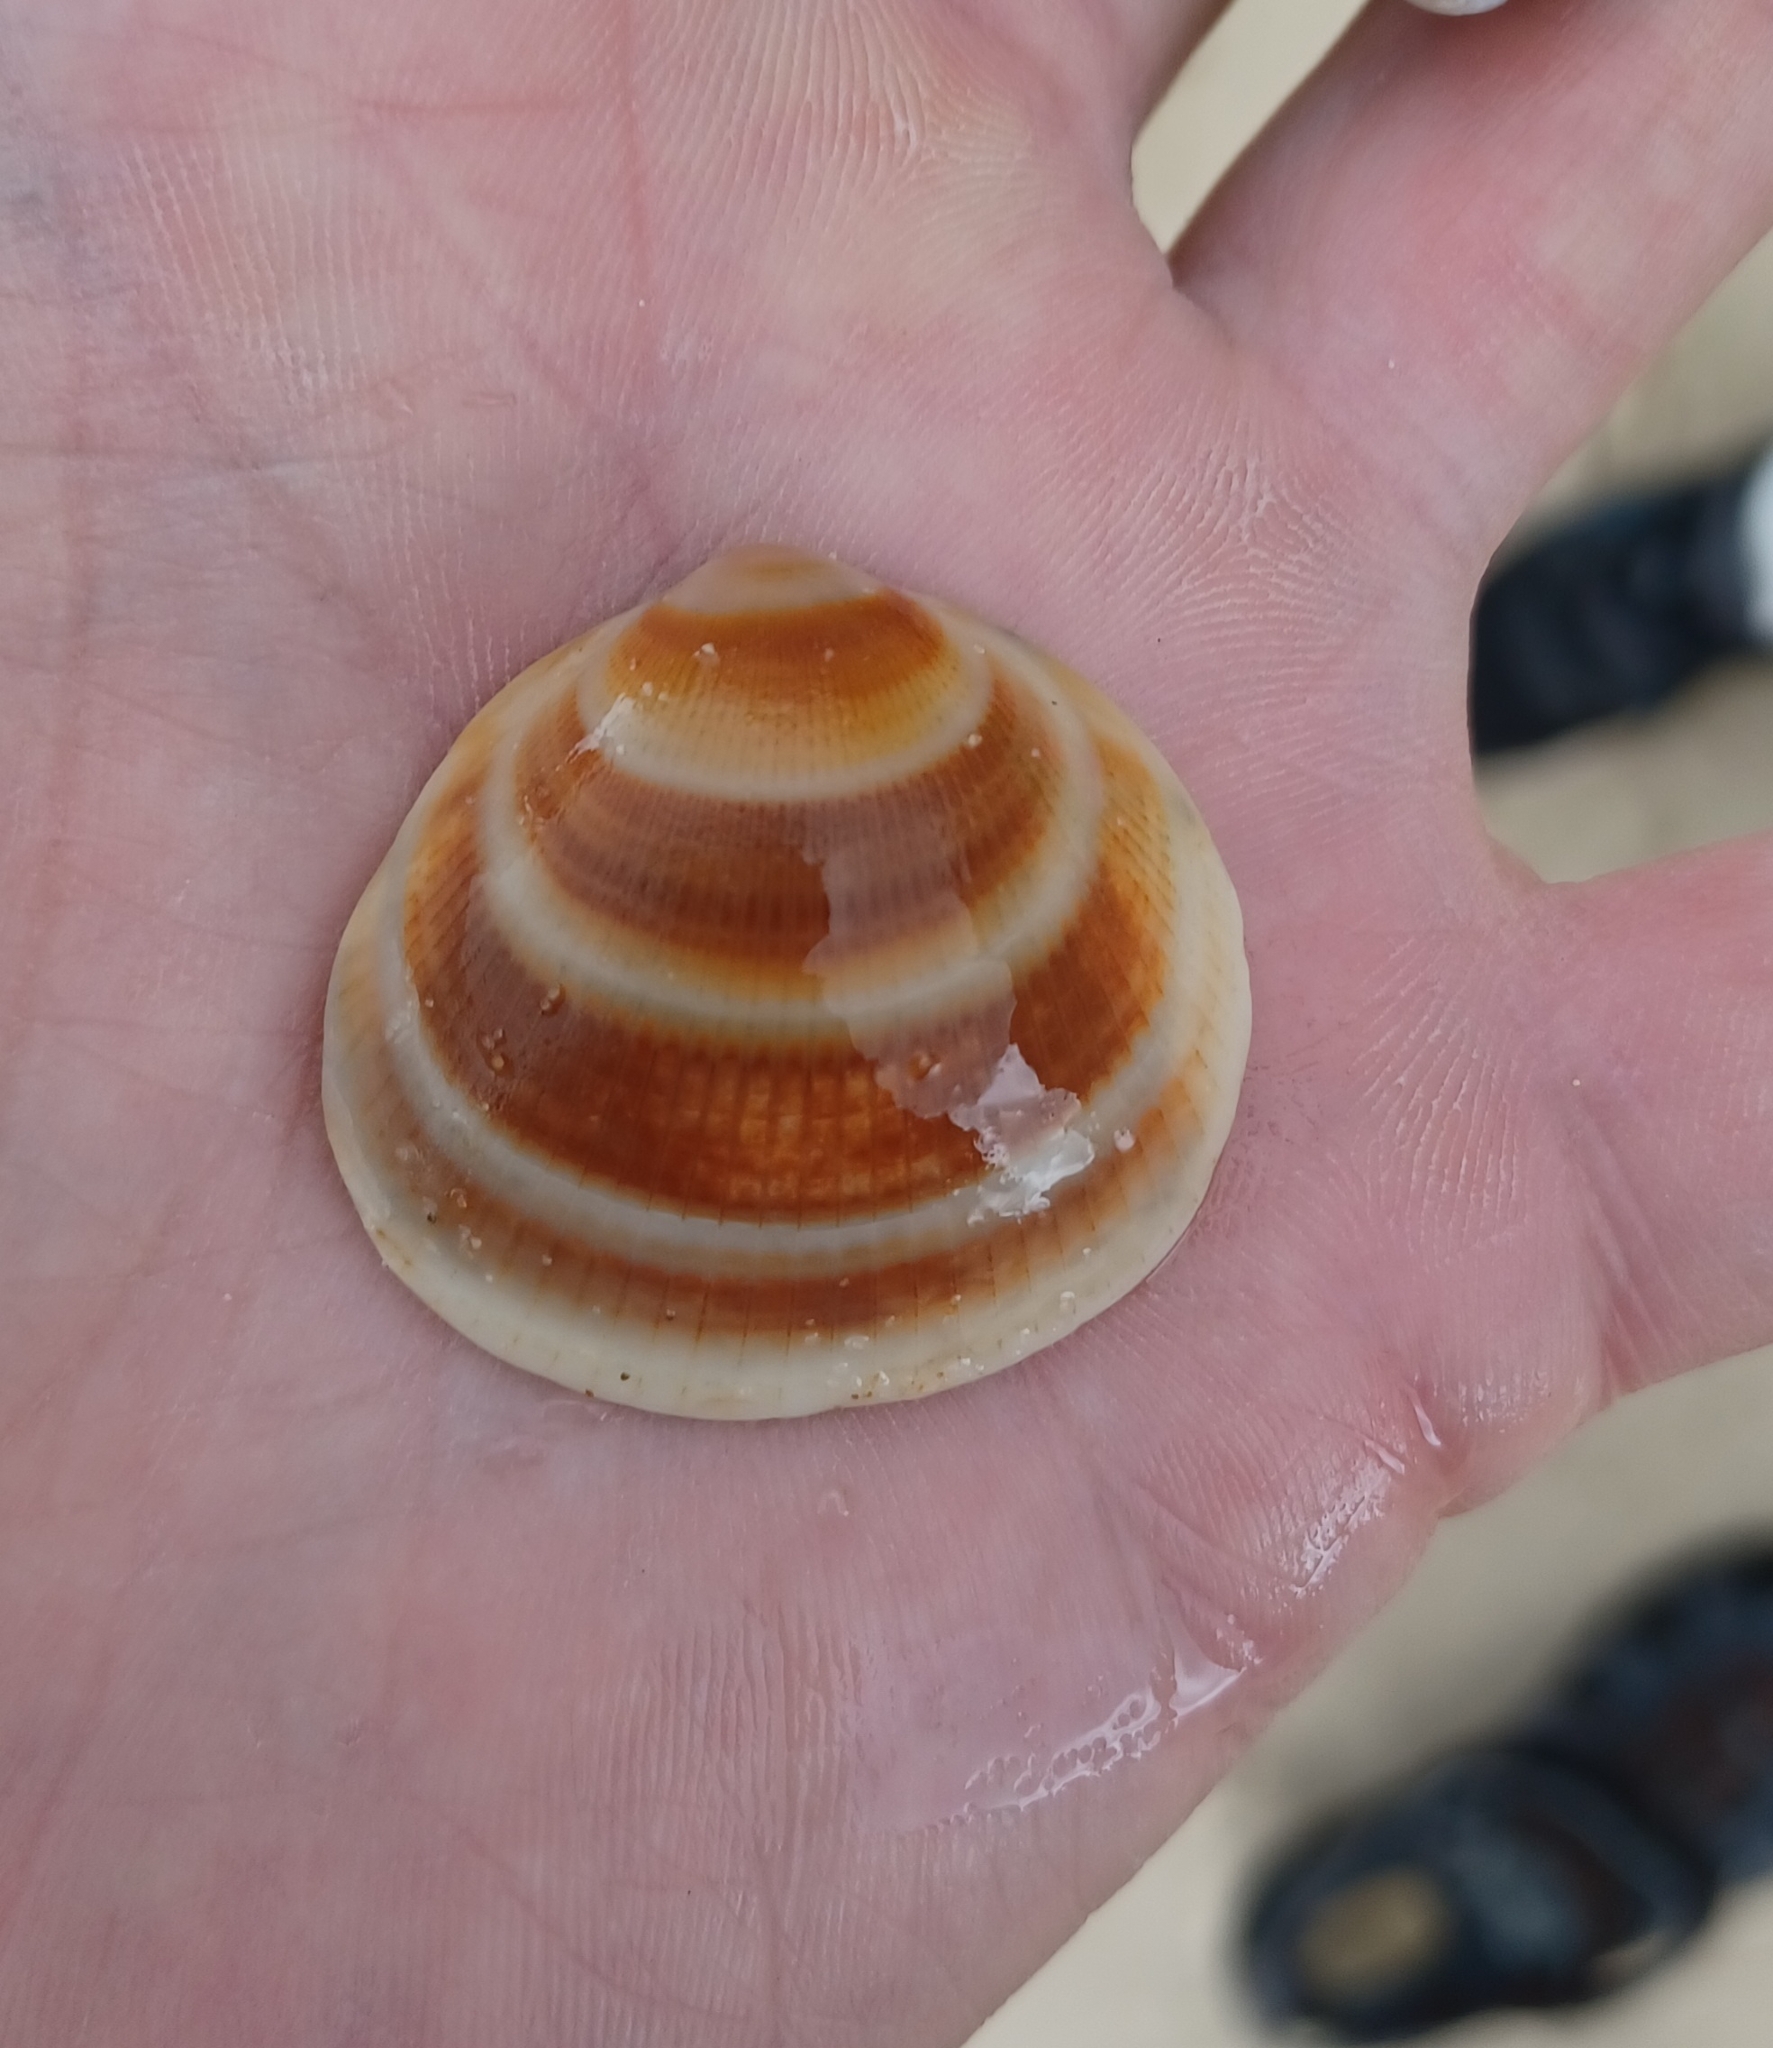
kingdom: Animalia
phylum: Mollusca
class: Bivalvia
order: Arcida
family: Glycymerididae
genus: Glycymeris
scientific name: Glycymeris grayana
